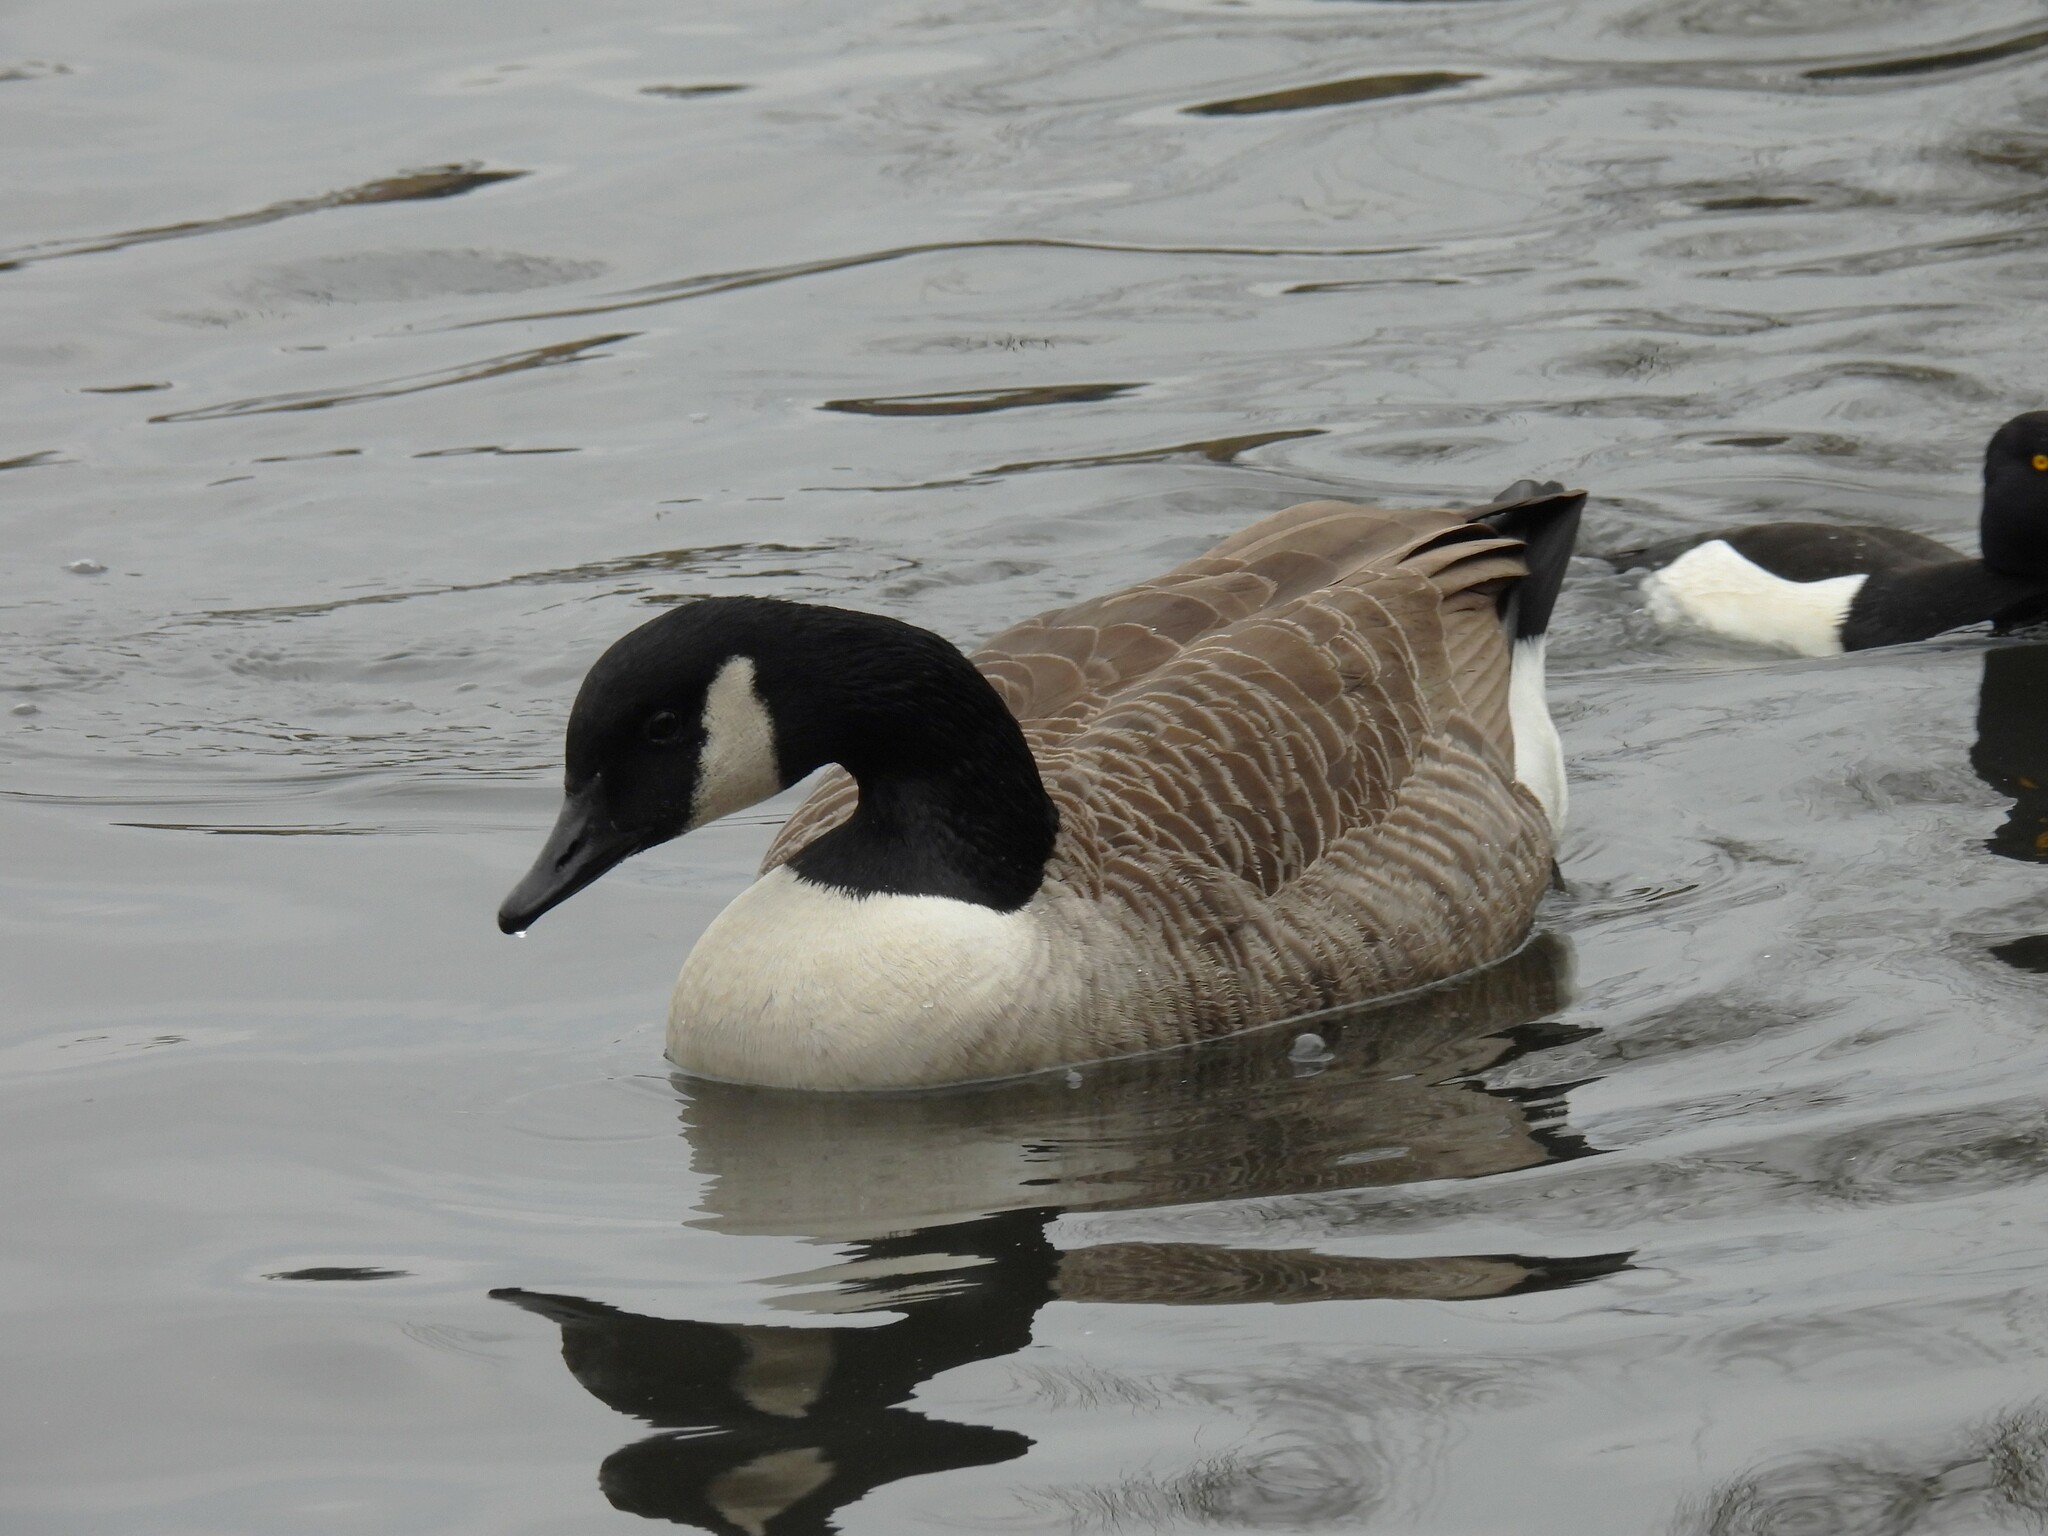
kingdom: Animalia
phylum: Chordata
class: Aves
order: Anseriformes
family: Anatidae
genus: Branta
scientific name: Branta canadensis
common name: Canada goose
